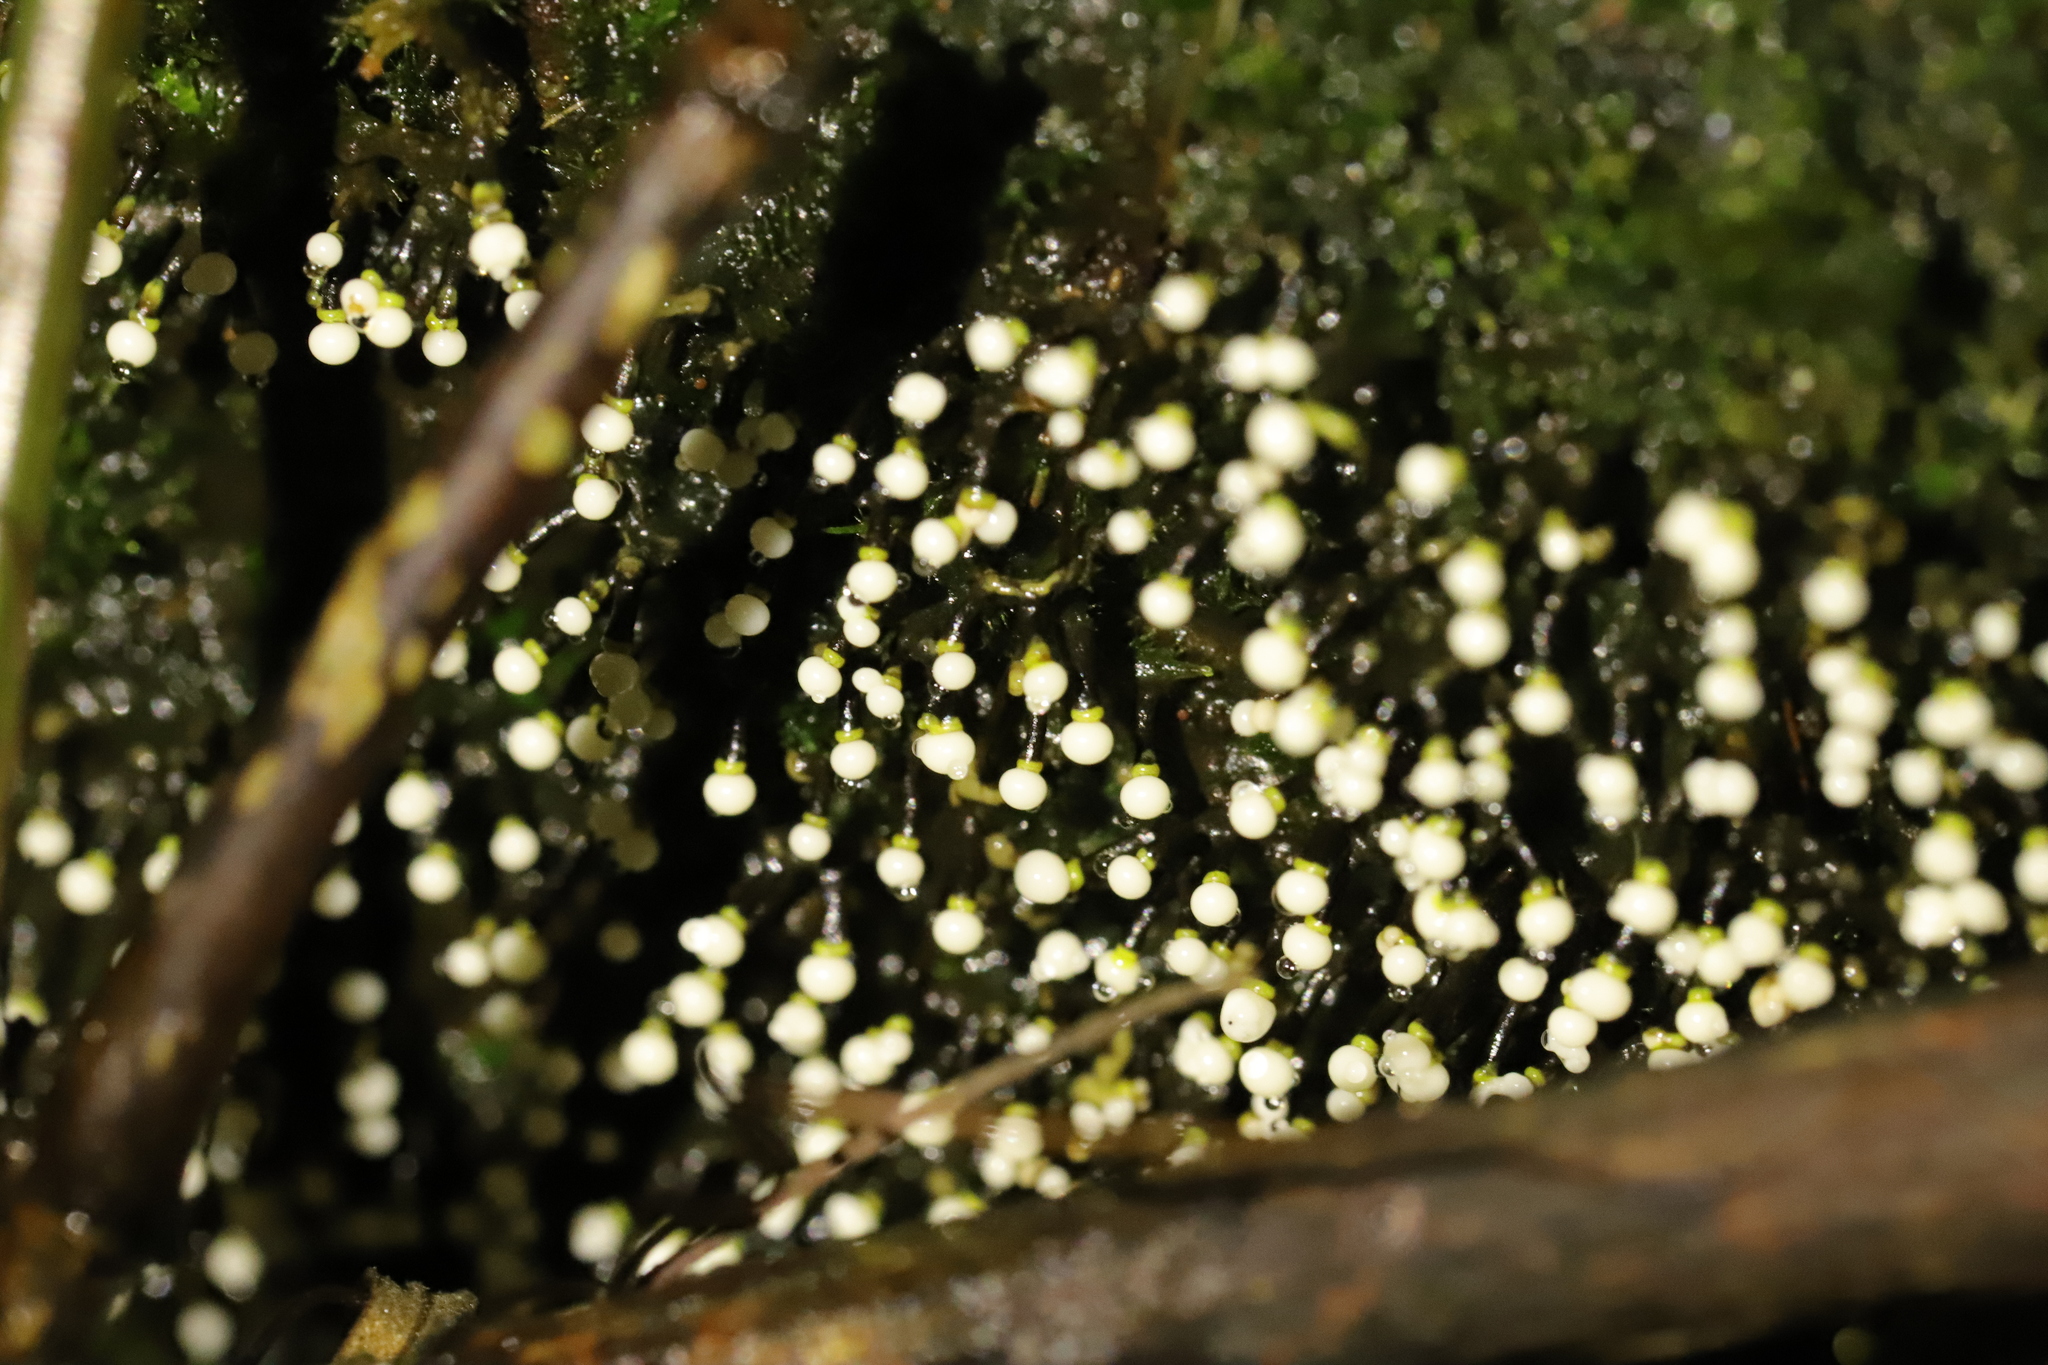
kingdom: Protozoa
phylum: Mycetozoa
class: Myxomycetes
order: Physarales
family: Elaeomyxaceae
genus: Elaeomyxa
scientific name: Elaeomyxa cerifera
